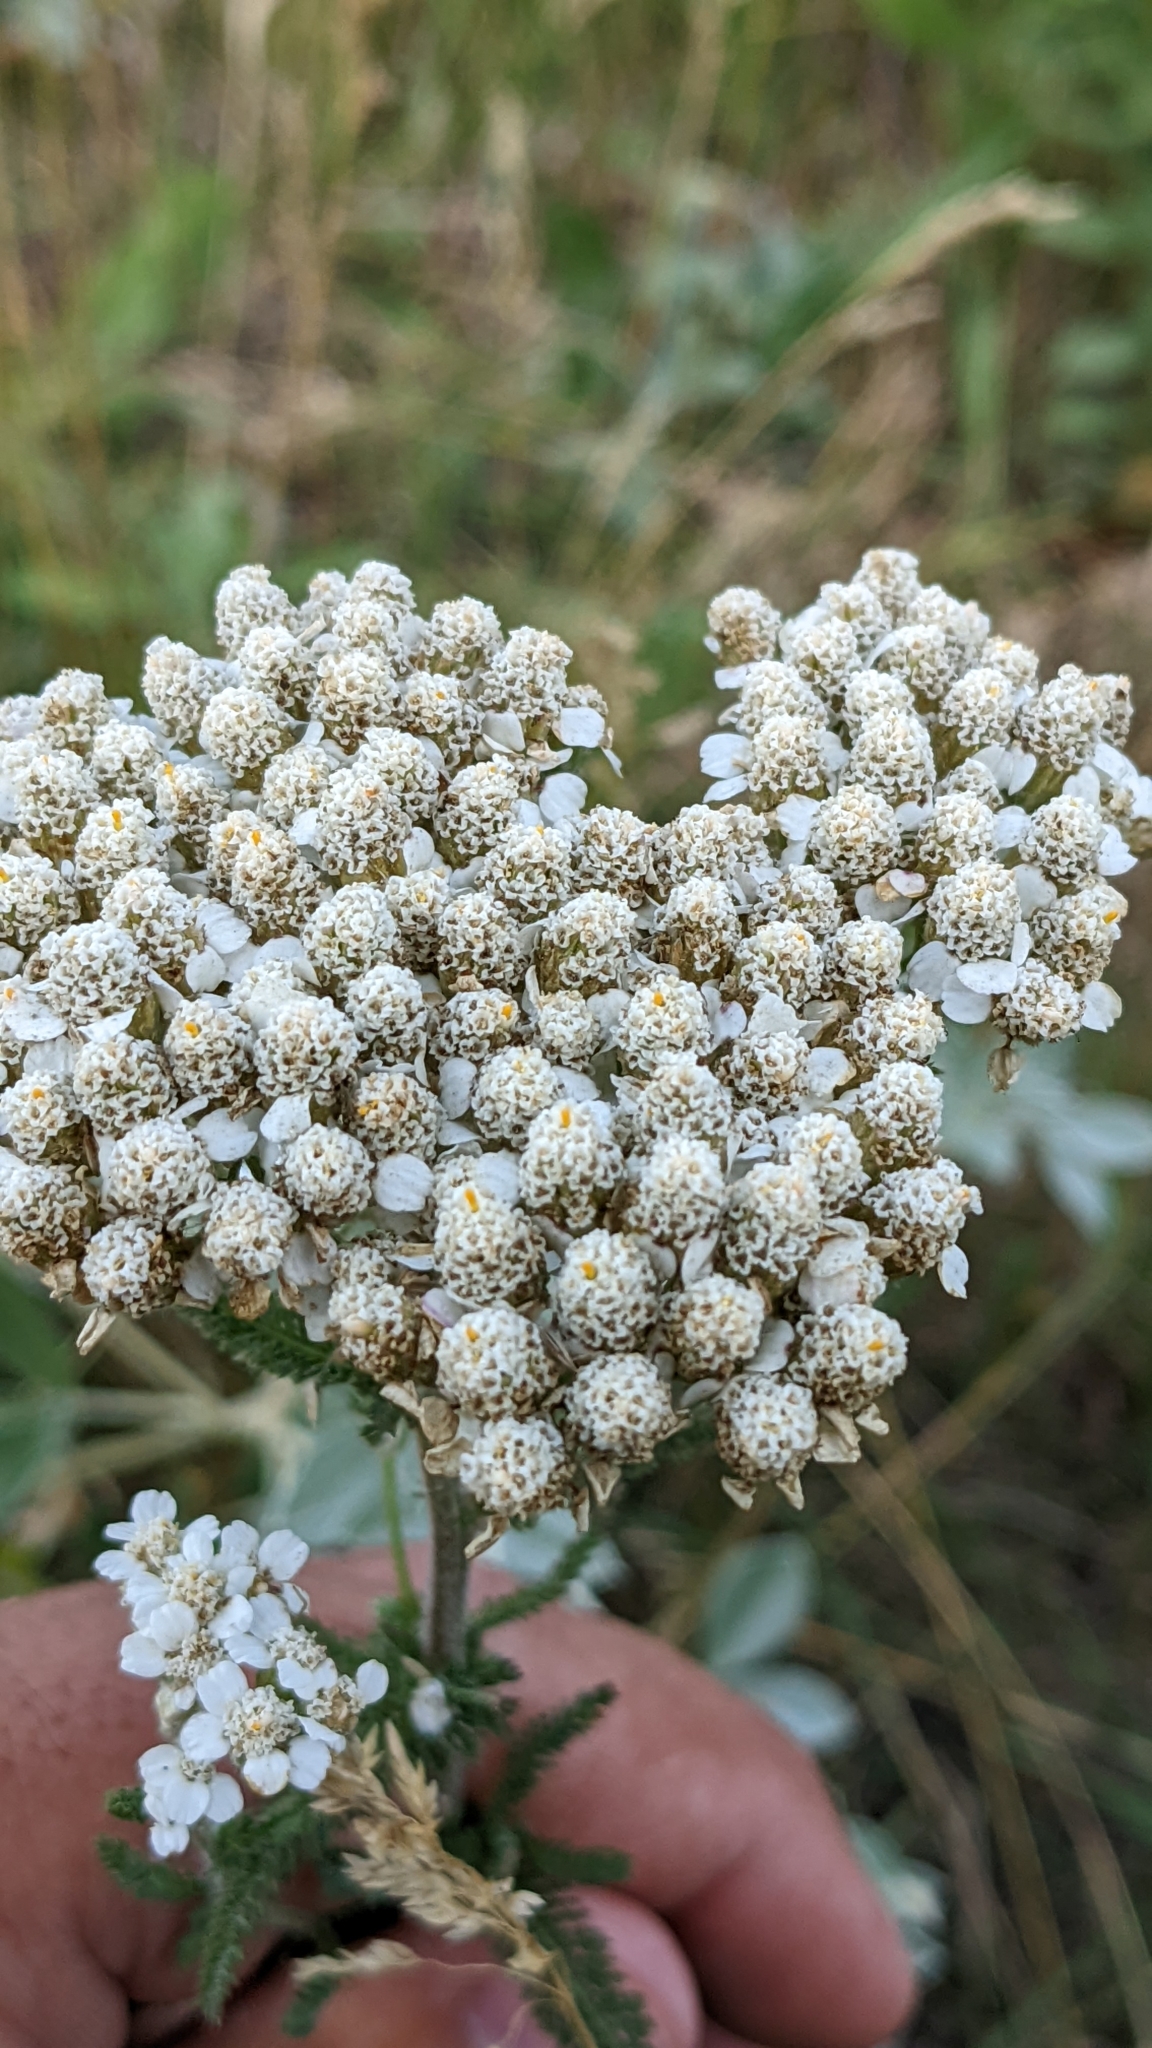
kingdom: Plantae
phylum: Tracheophyta
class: Magnoliopsida
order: Asterales
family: Asteraceae
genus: Achillea
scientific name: Achillea millefolium
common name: Yarrow
